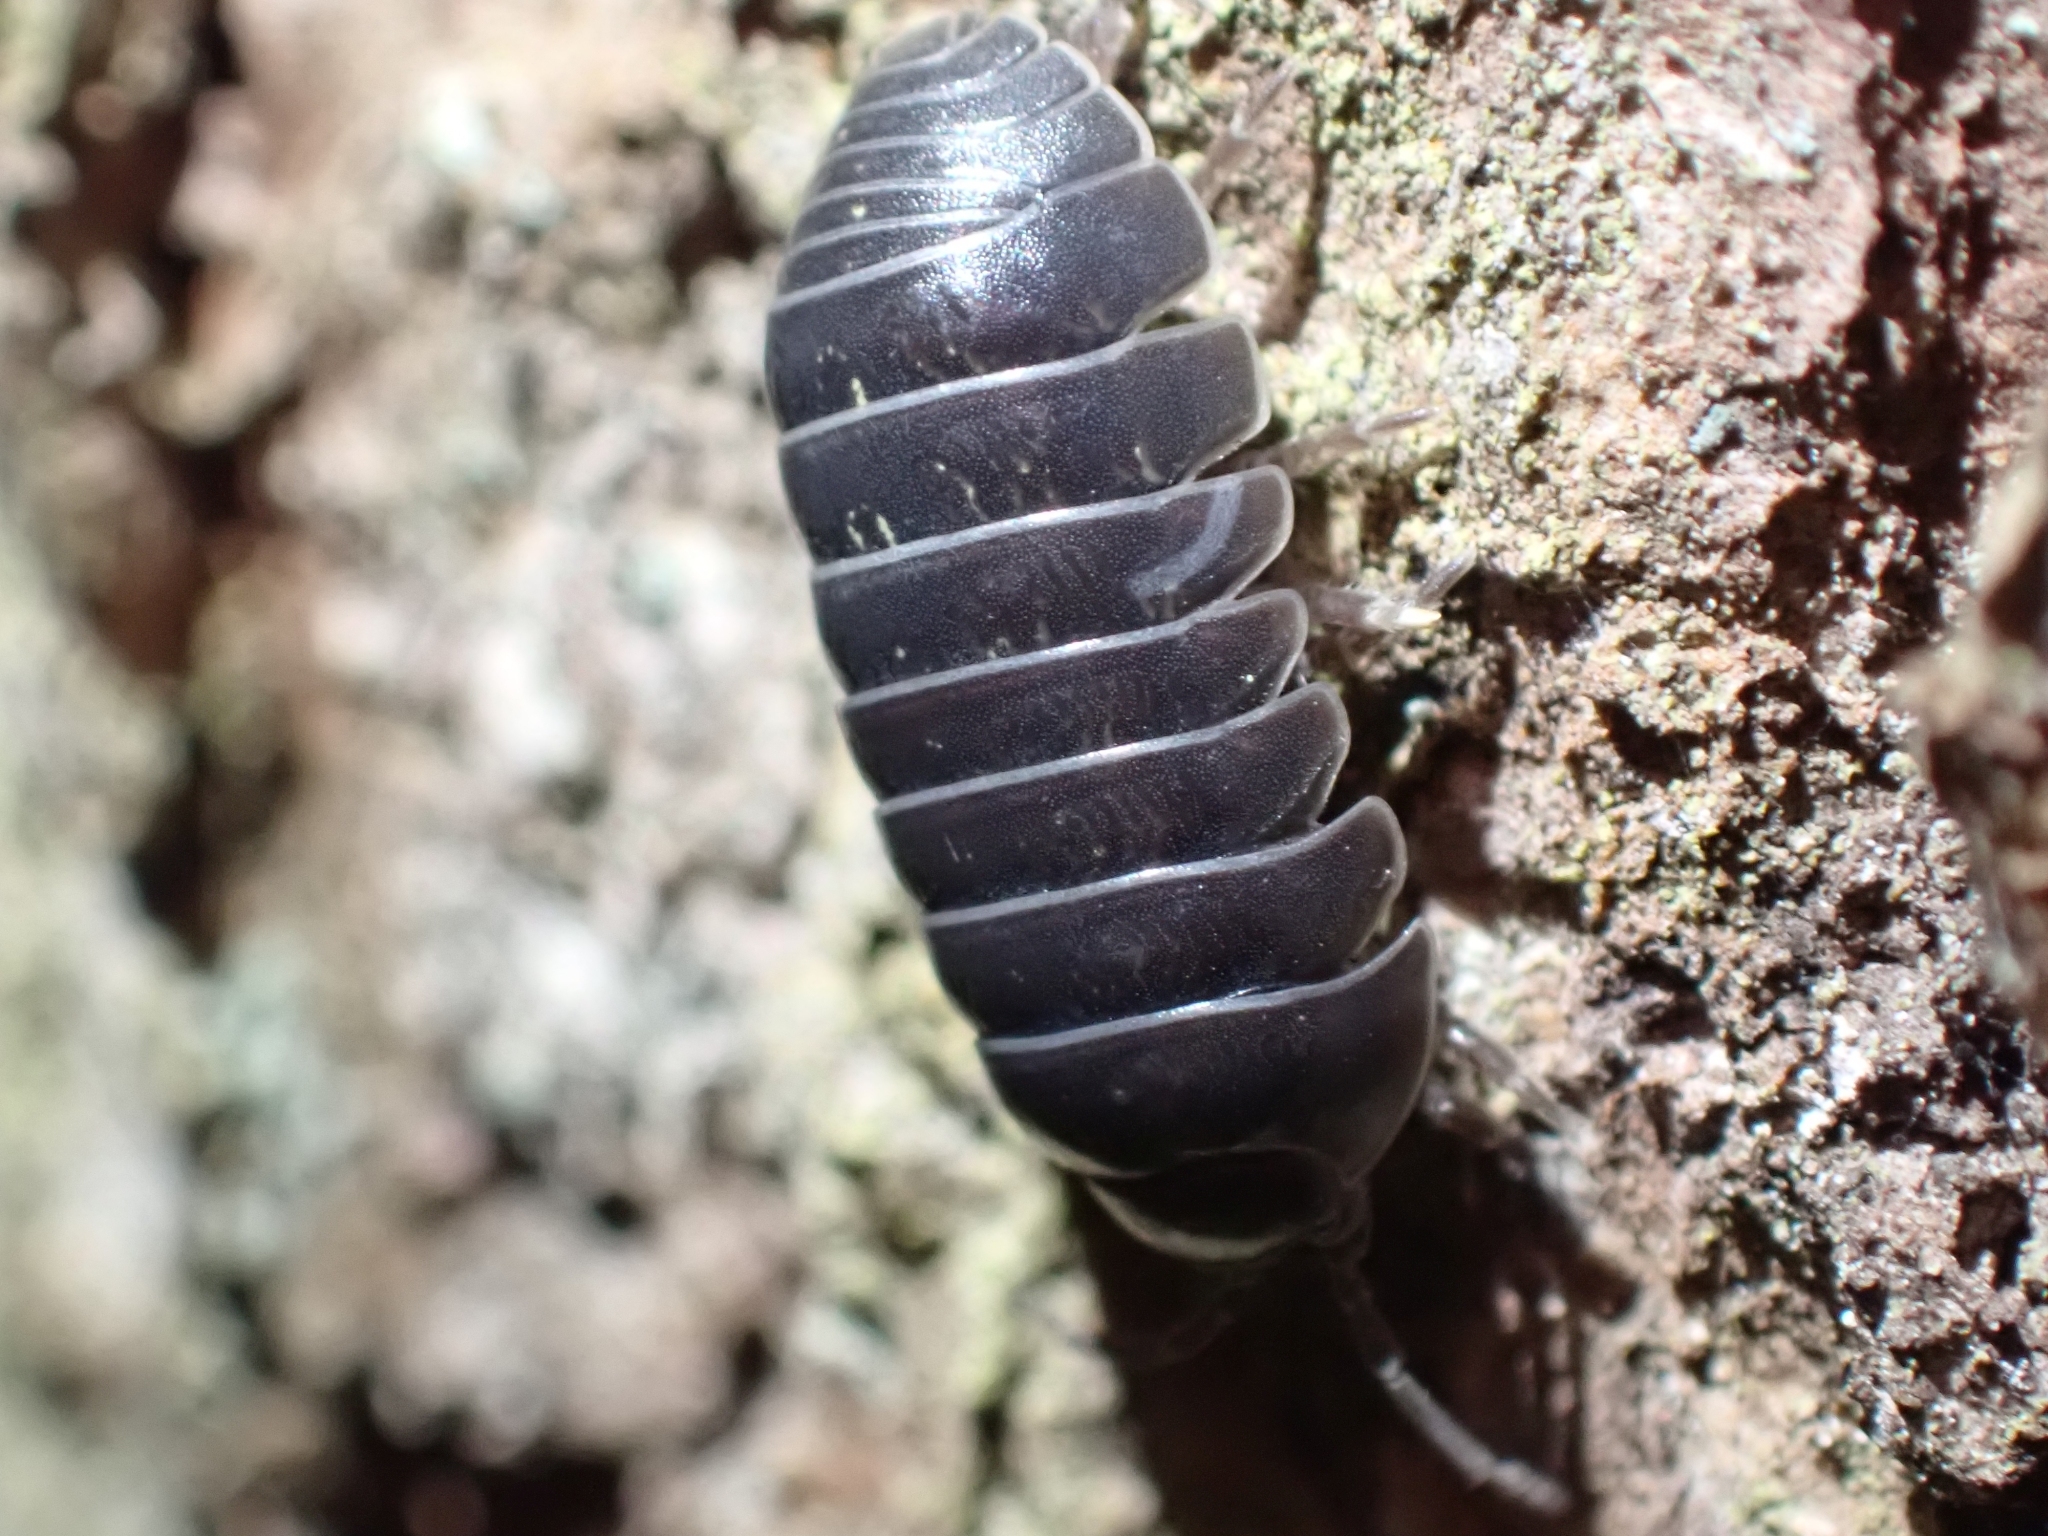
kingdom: Animalia
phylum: Arthropoda
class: Malacostraca
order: Isopoda
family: Armadillidiidae
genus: Armadillidium
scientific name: Armadillidium vulgare
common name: Common pill woodlouse
